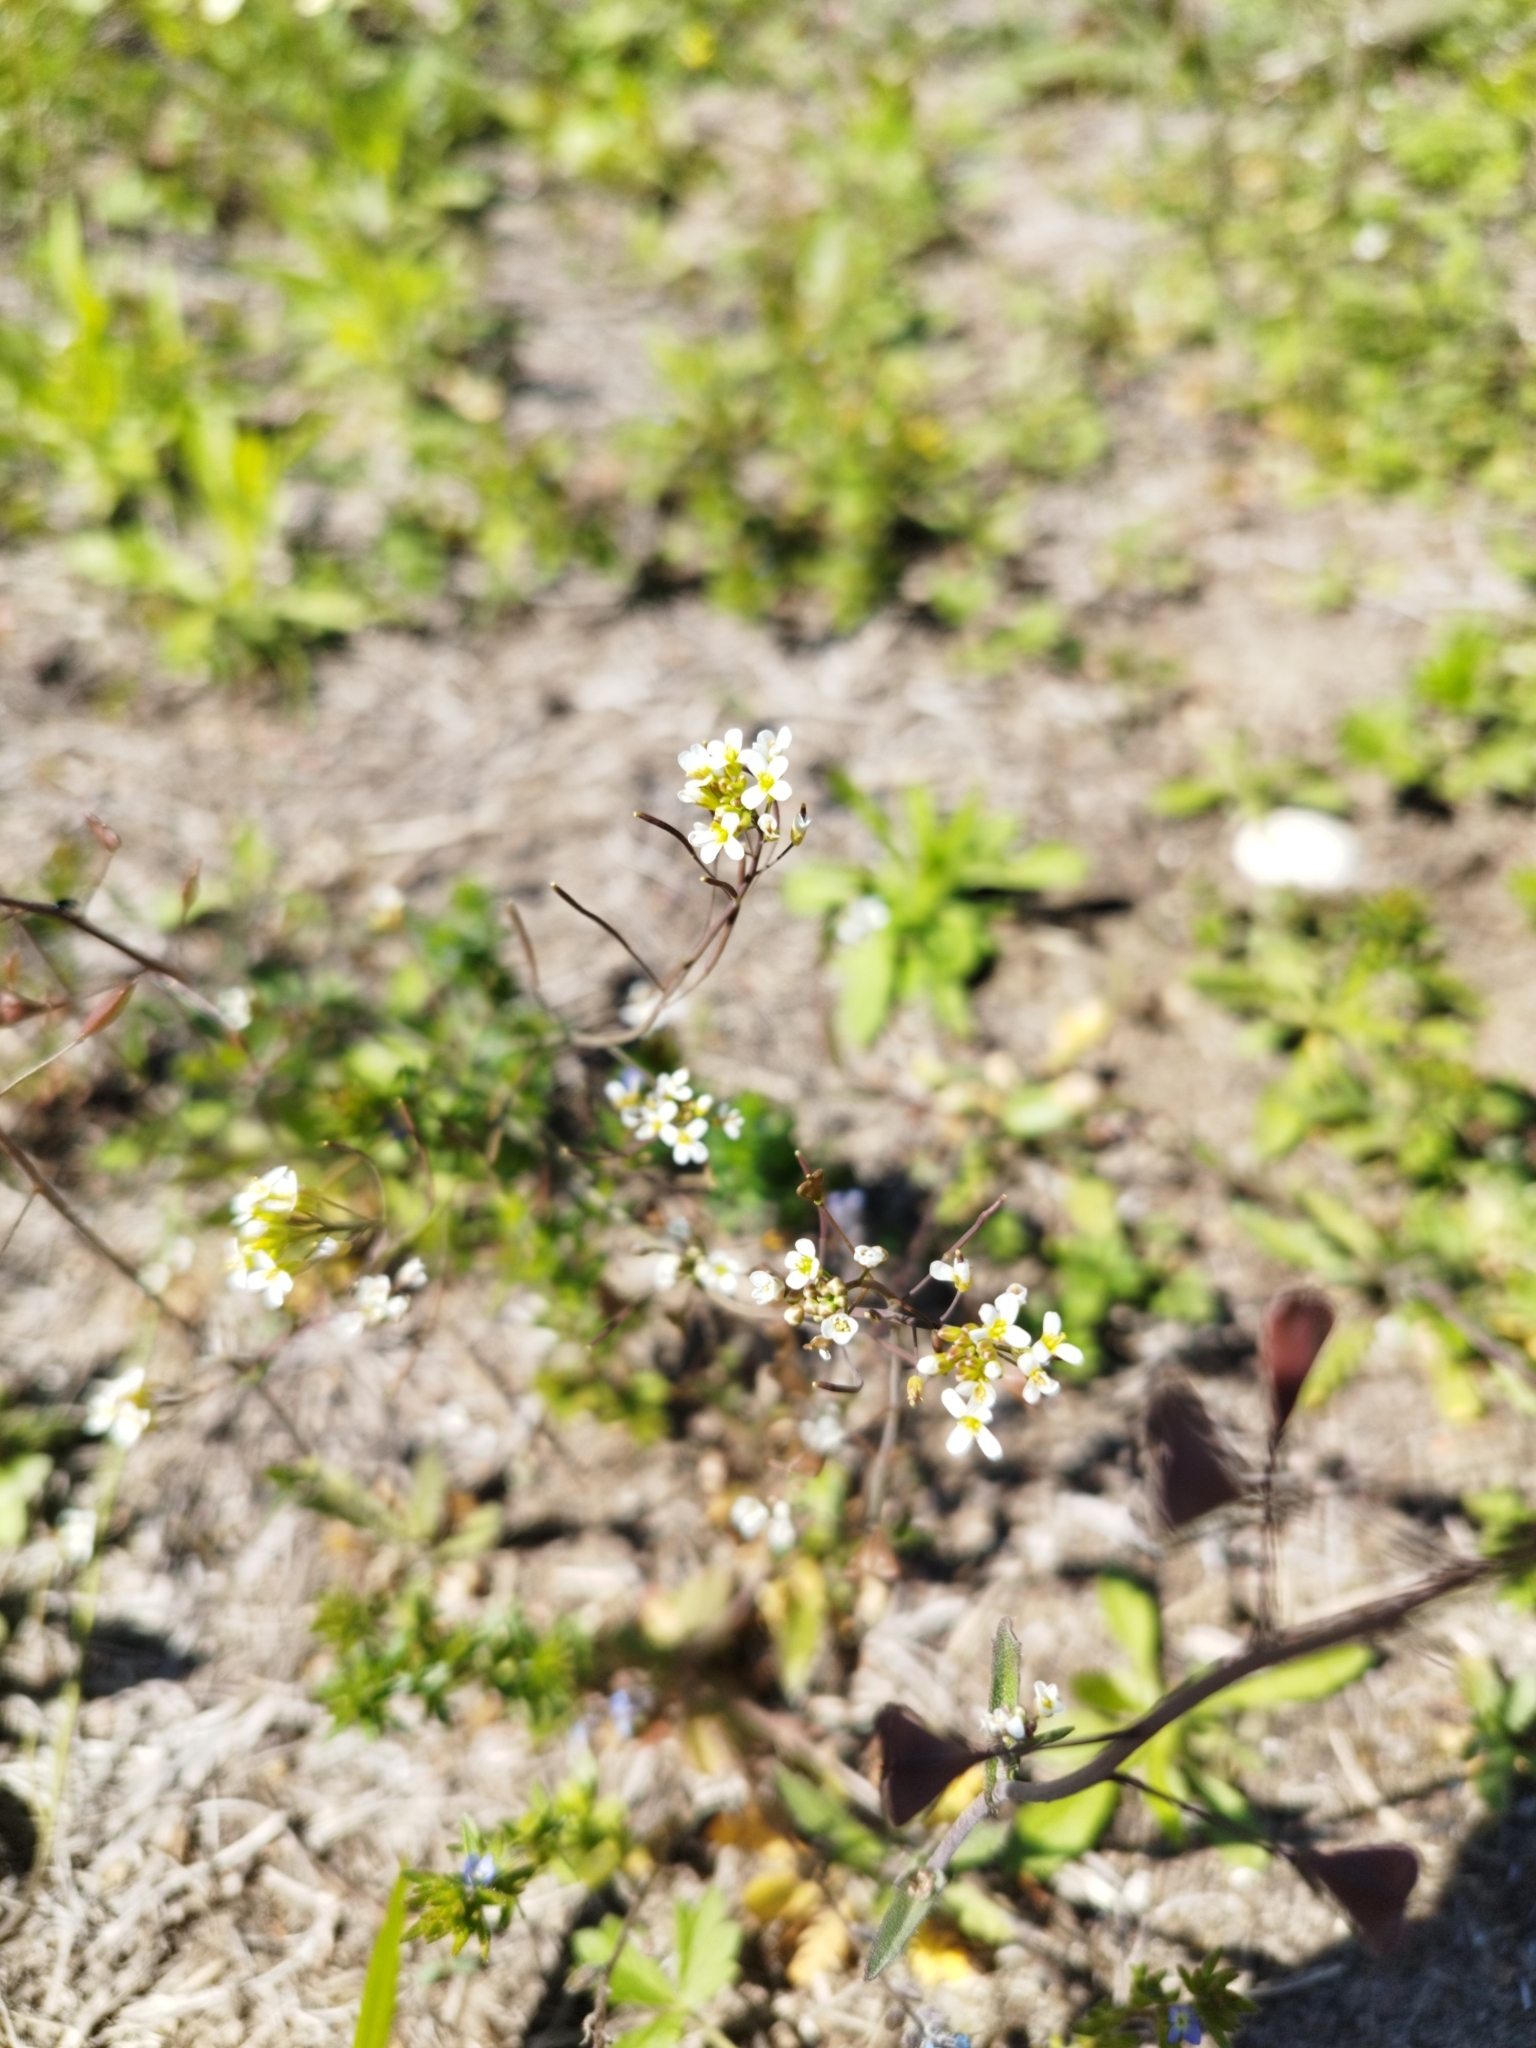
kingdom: Plantae
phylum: Tracheophyta
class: Magnoliopsida
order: Brassicales
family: Brassicaceae
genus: Arabidopsis
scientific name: Arabidopsis thaliana
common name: Thale cress
